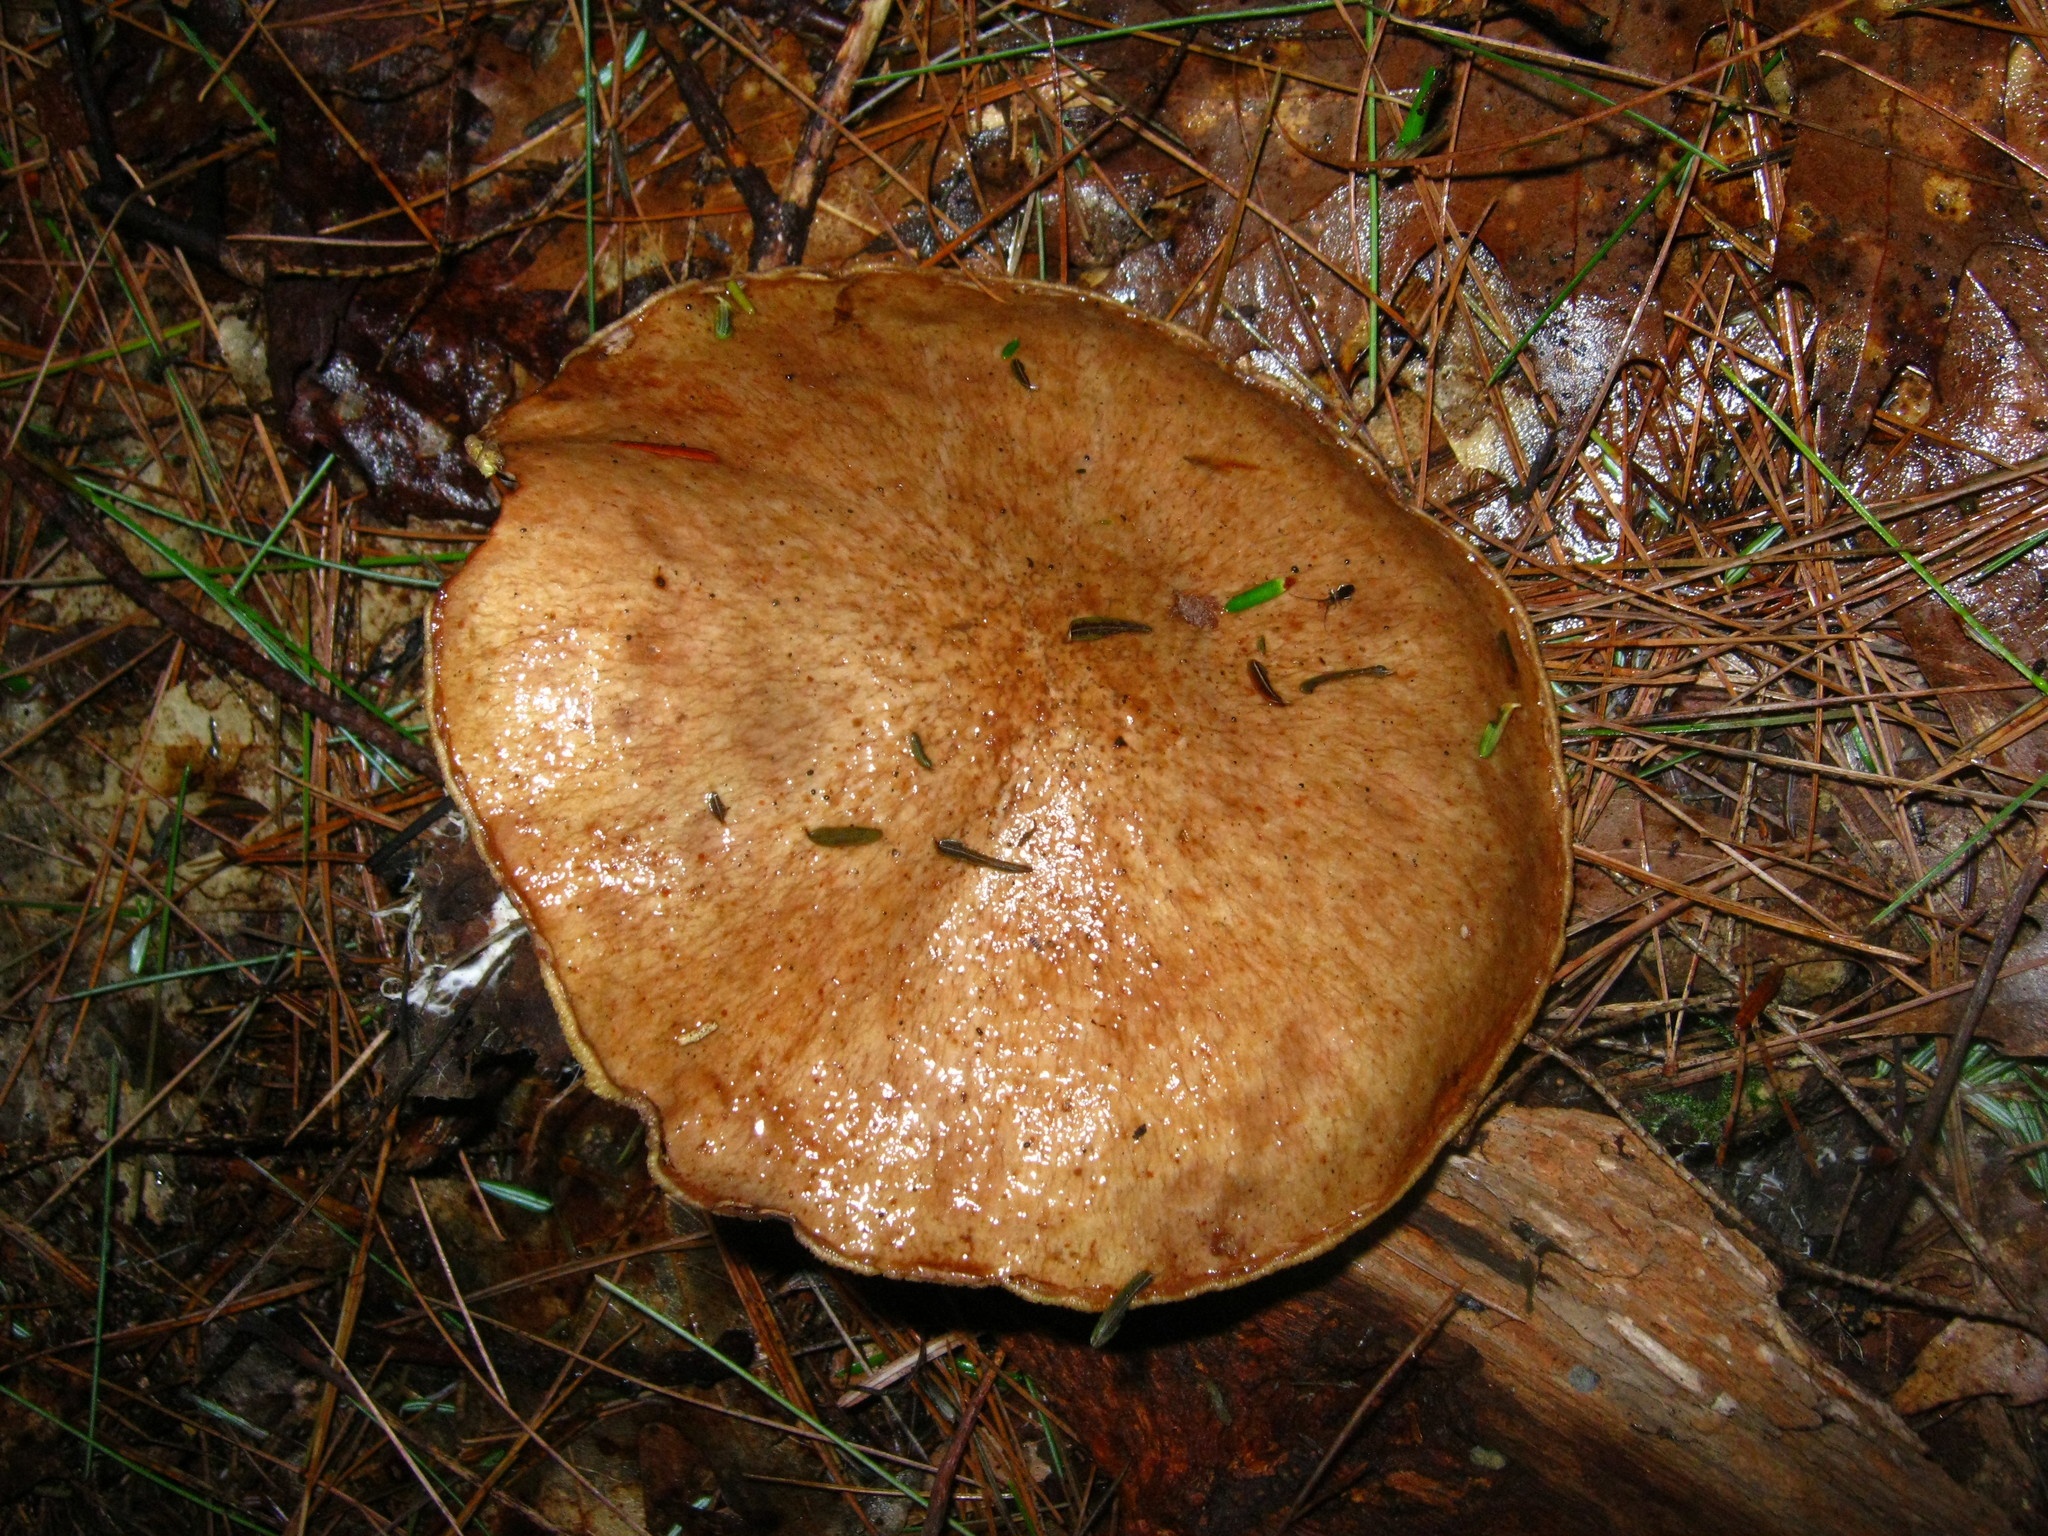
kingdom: Fungi
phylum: Basidiomycota
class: Agaricomycetes
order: Boletales
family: Suillaceae
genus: Suillus
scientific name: Suillus acidus
